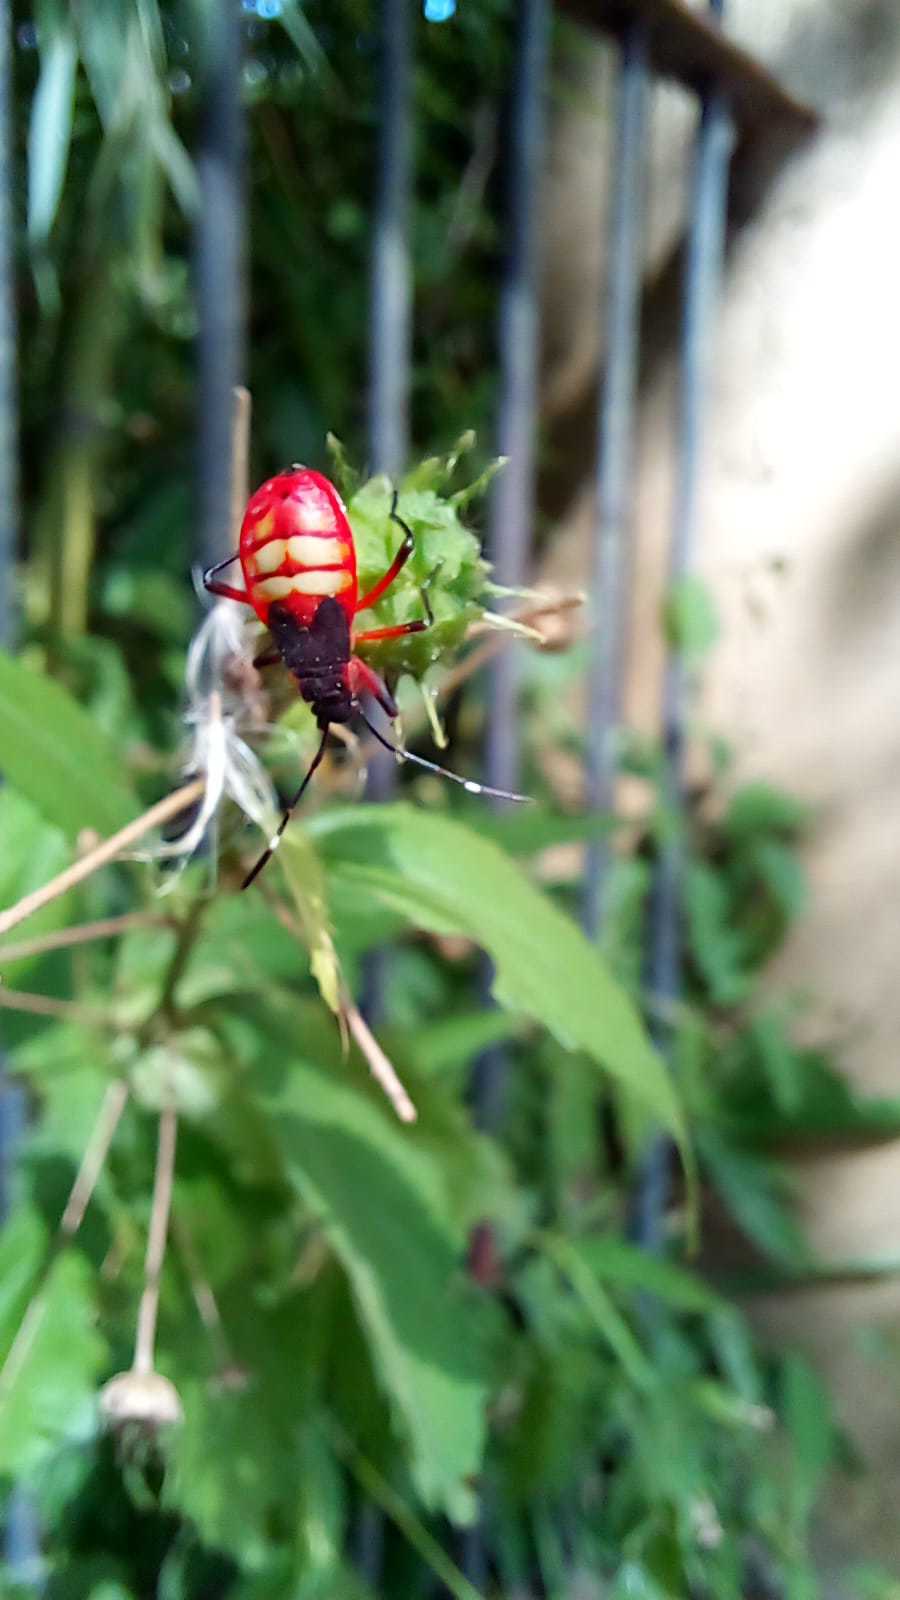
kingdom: Animalia
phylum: Arthropoda
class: Insecta
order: Hemiptera
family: Pyrrhocoridae
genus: Dysdercus
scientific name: Dysdercus albofasciatus
